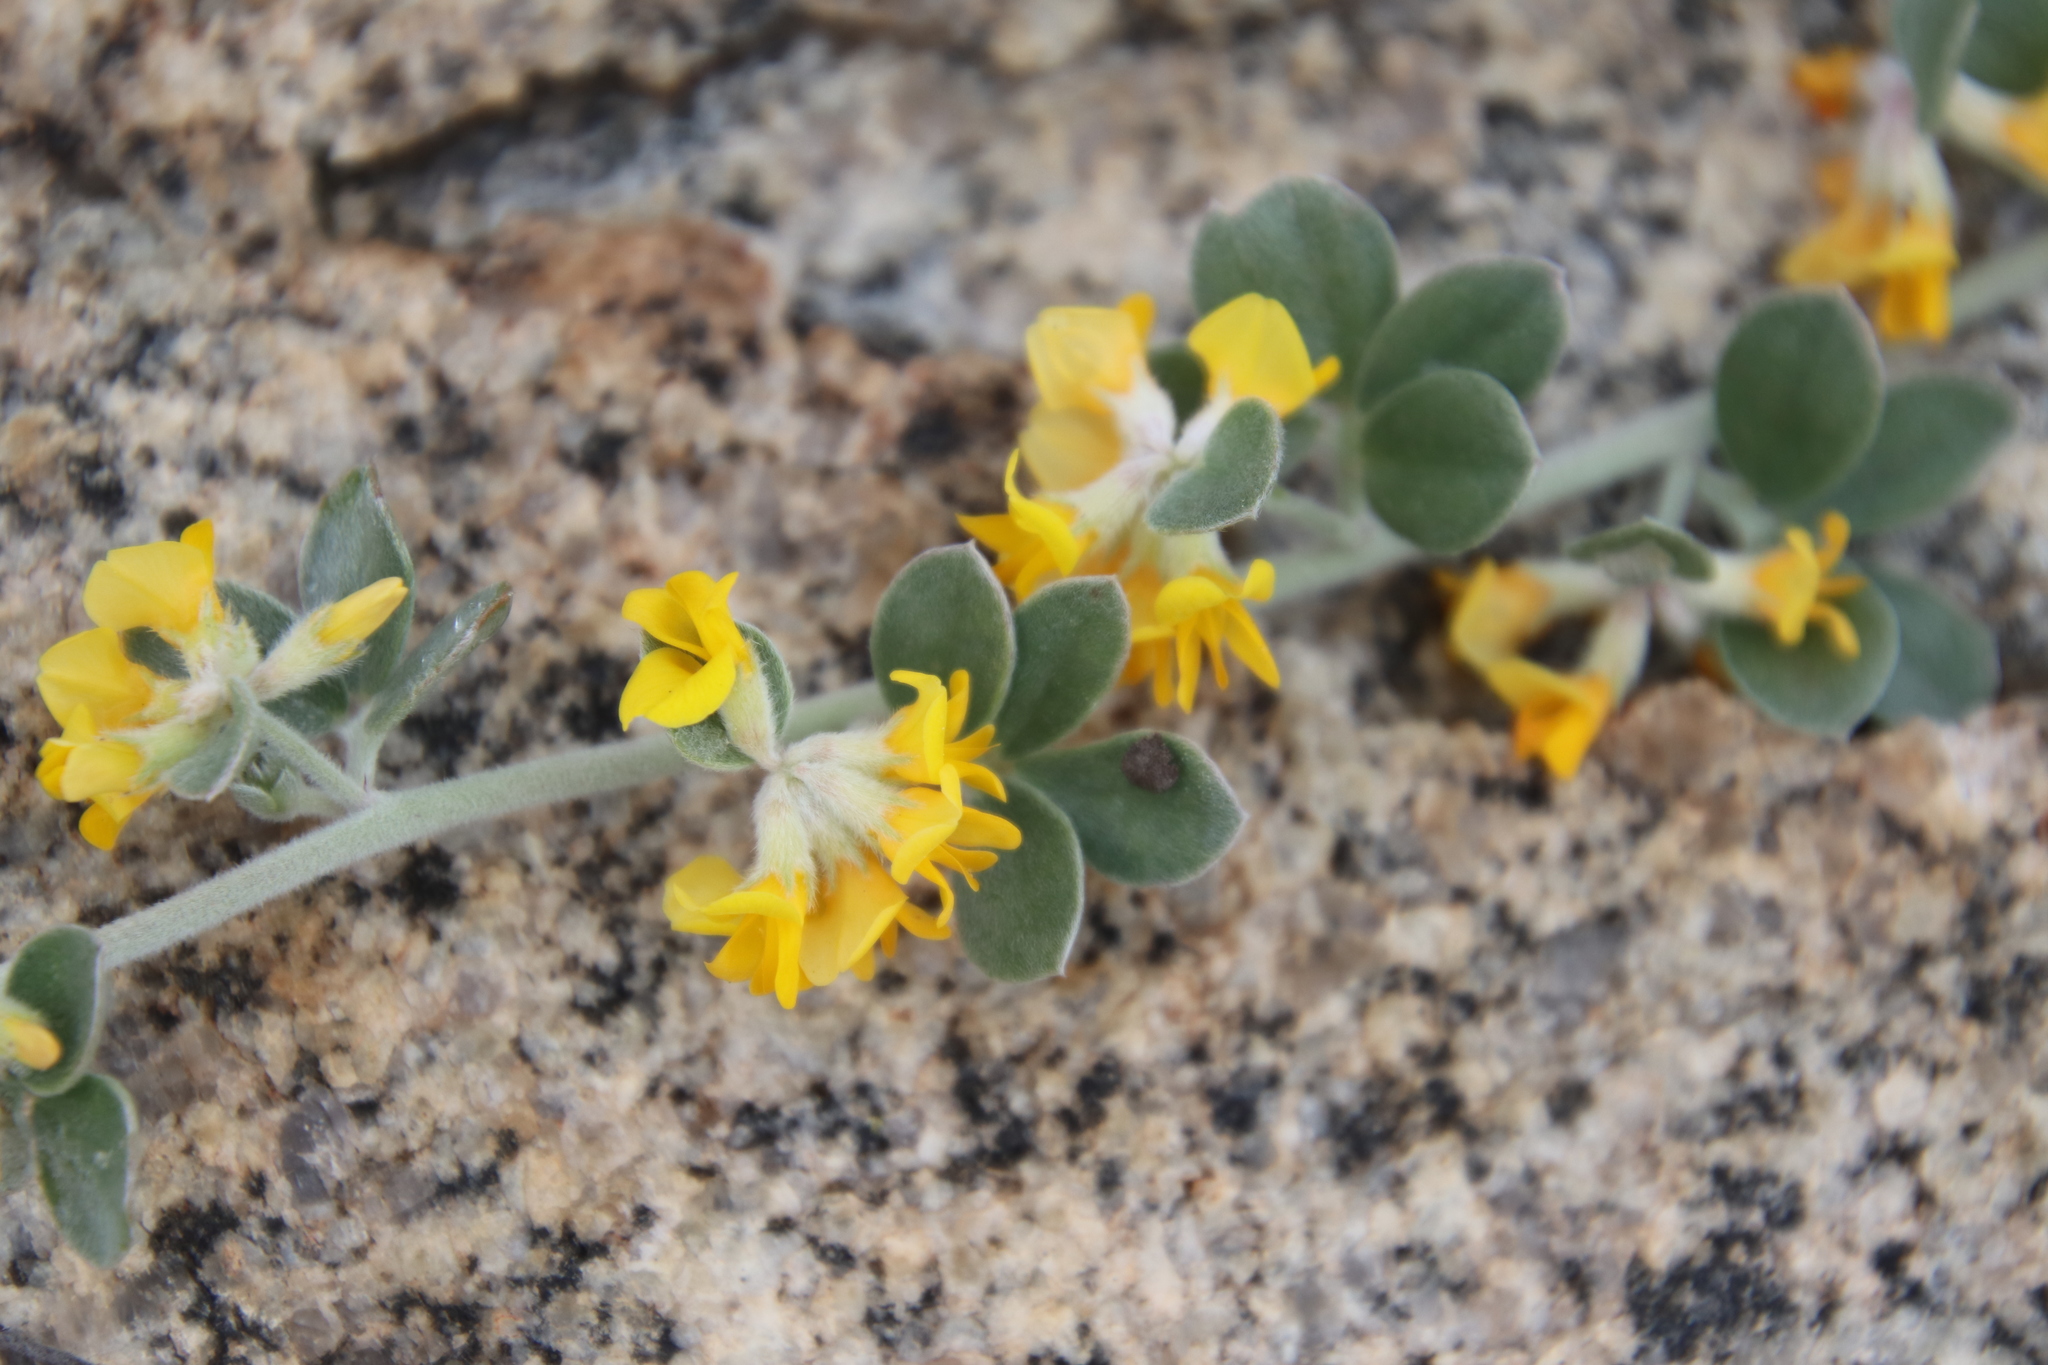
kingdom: Plantae
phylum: Tracheophyta
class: Magnoliopsida
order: Fabales
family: Fabaceae
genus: Acmispon
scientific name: Acmispon argophyllus
